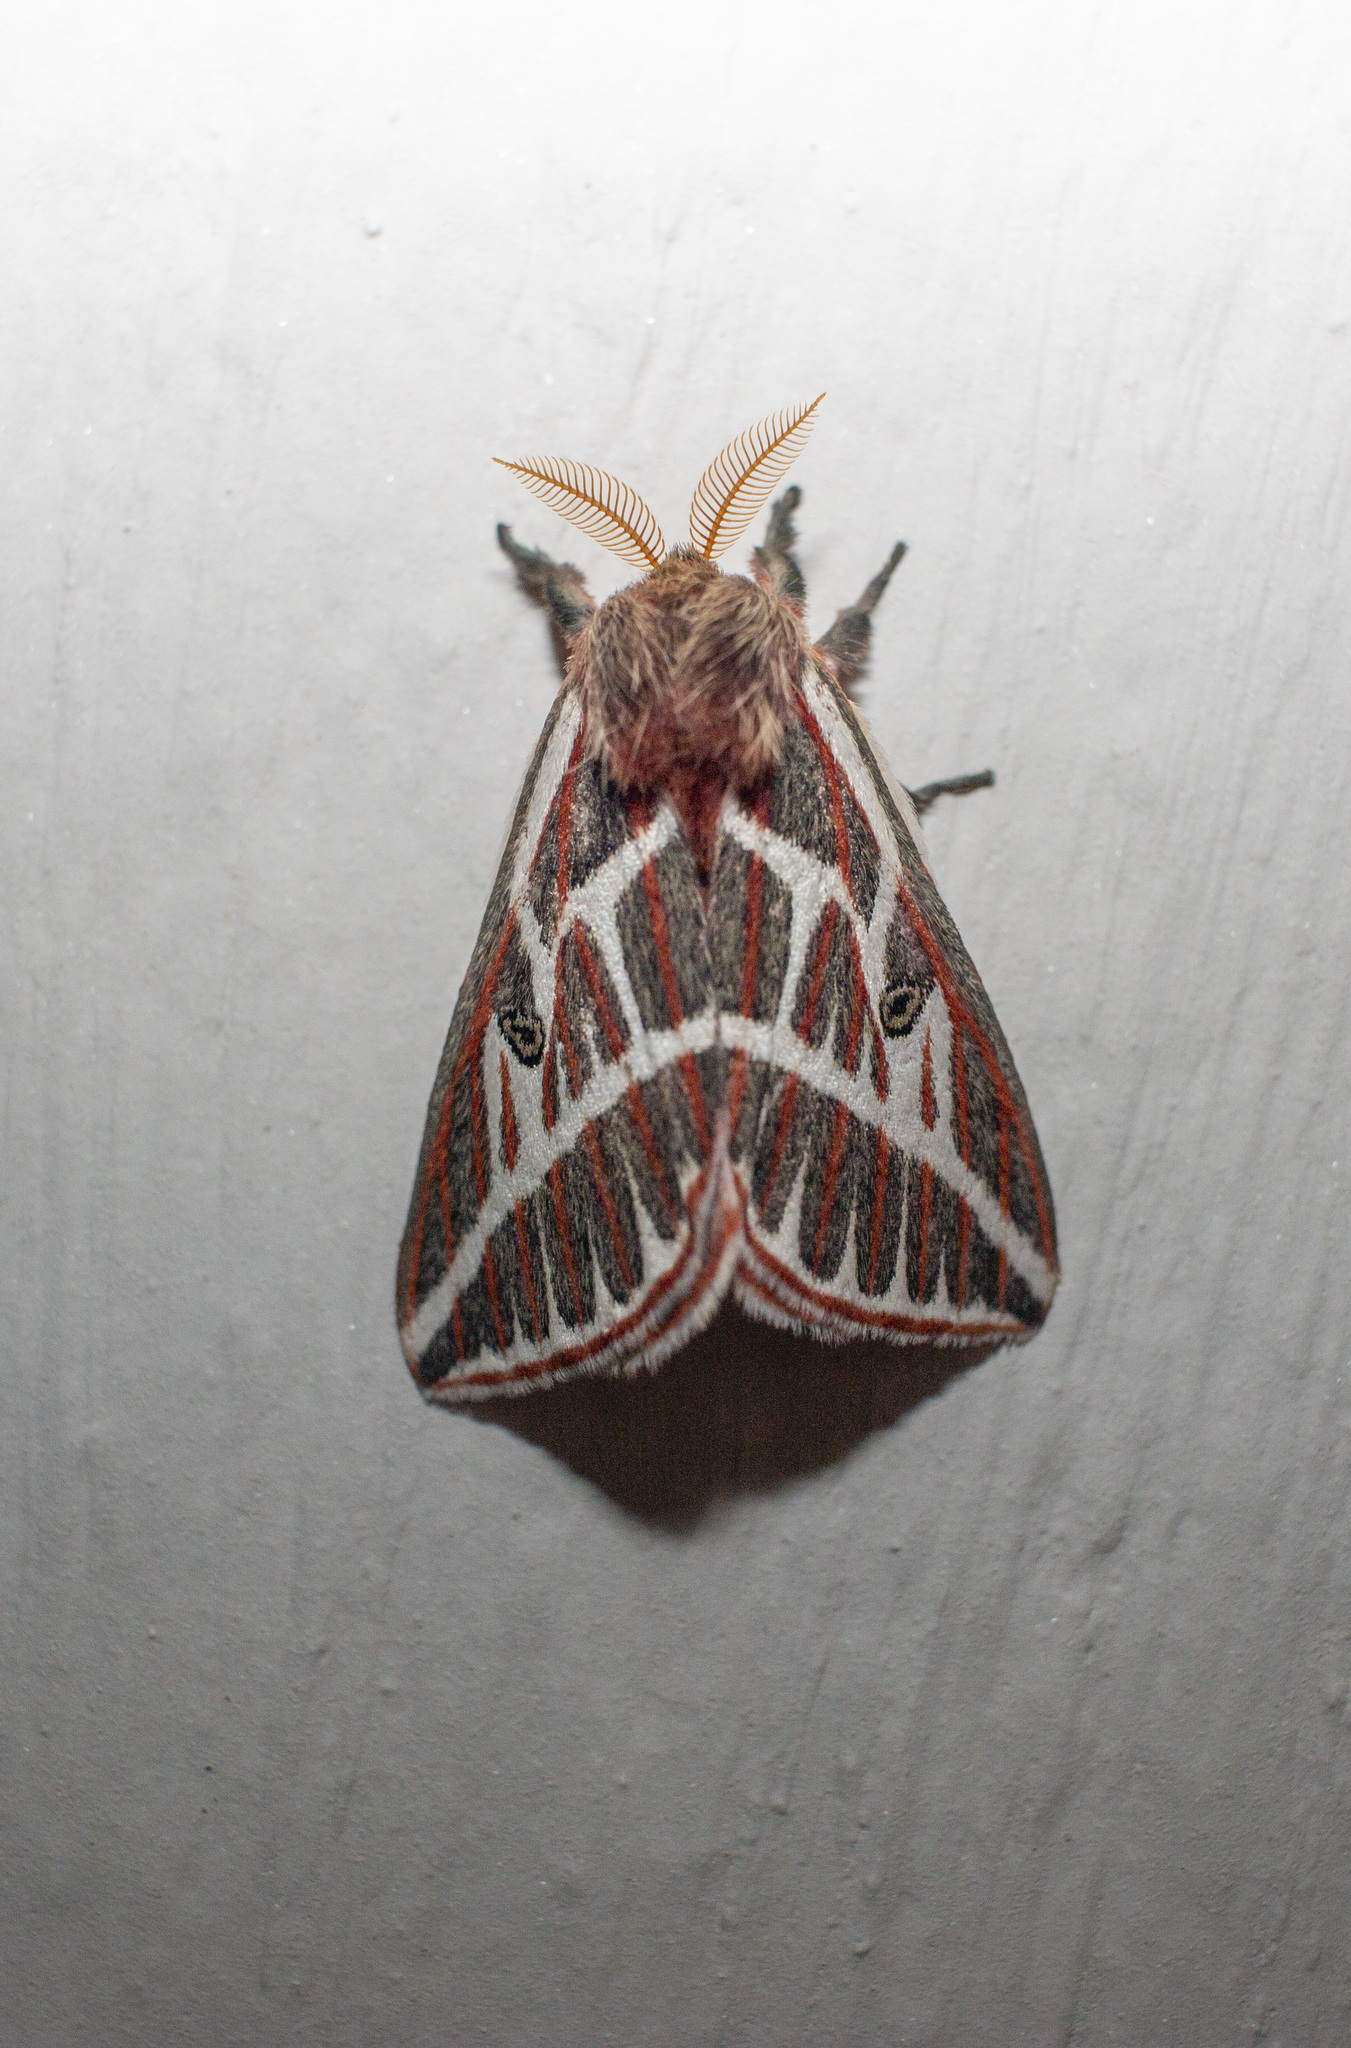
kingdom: Animalia
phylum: Arthropoda
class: Insecta
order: Lepidoptera
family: Saturniidae
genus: Eubergia
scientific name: Eubergia argyrea
